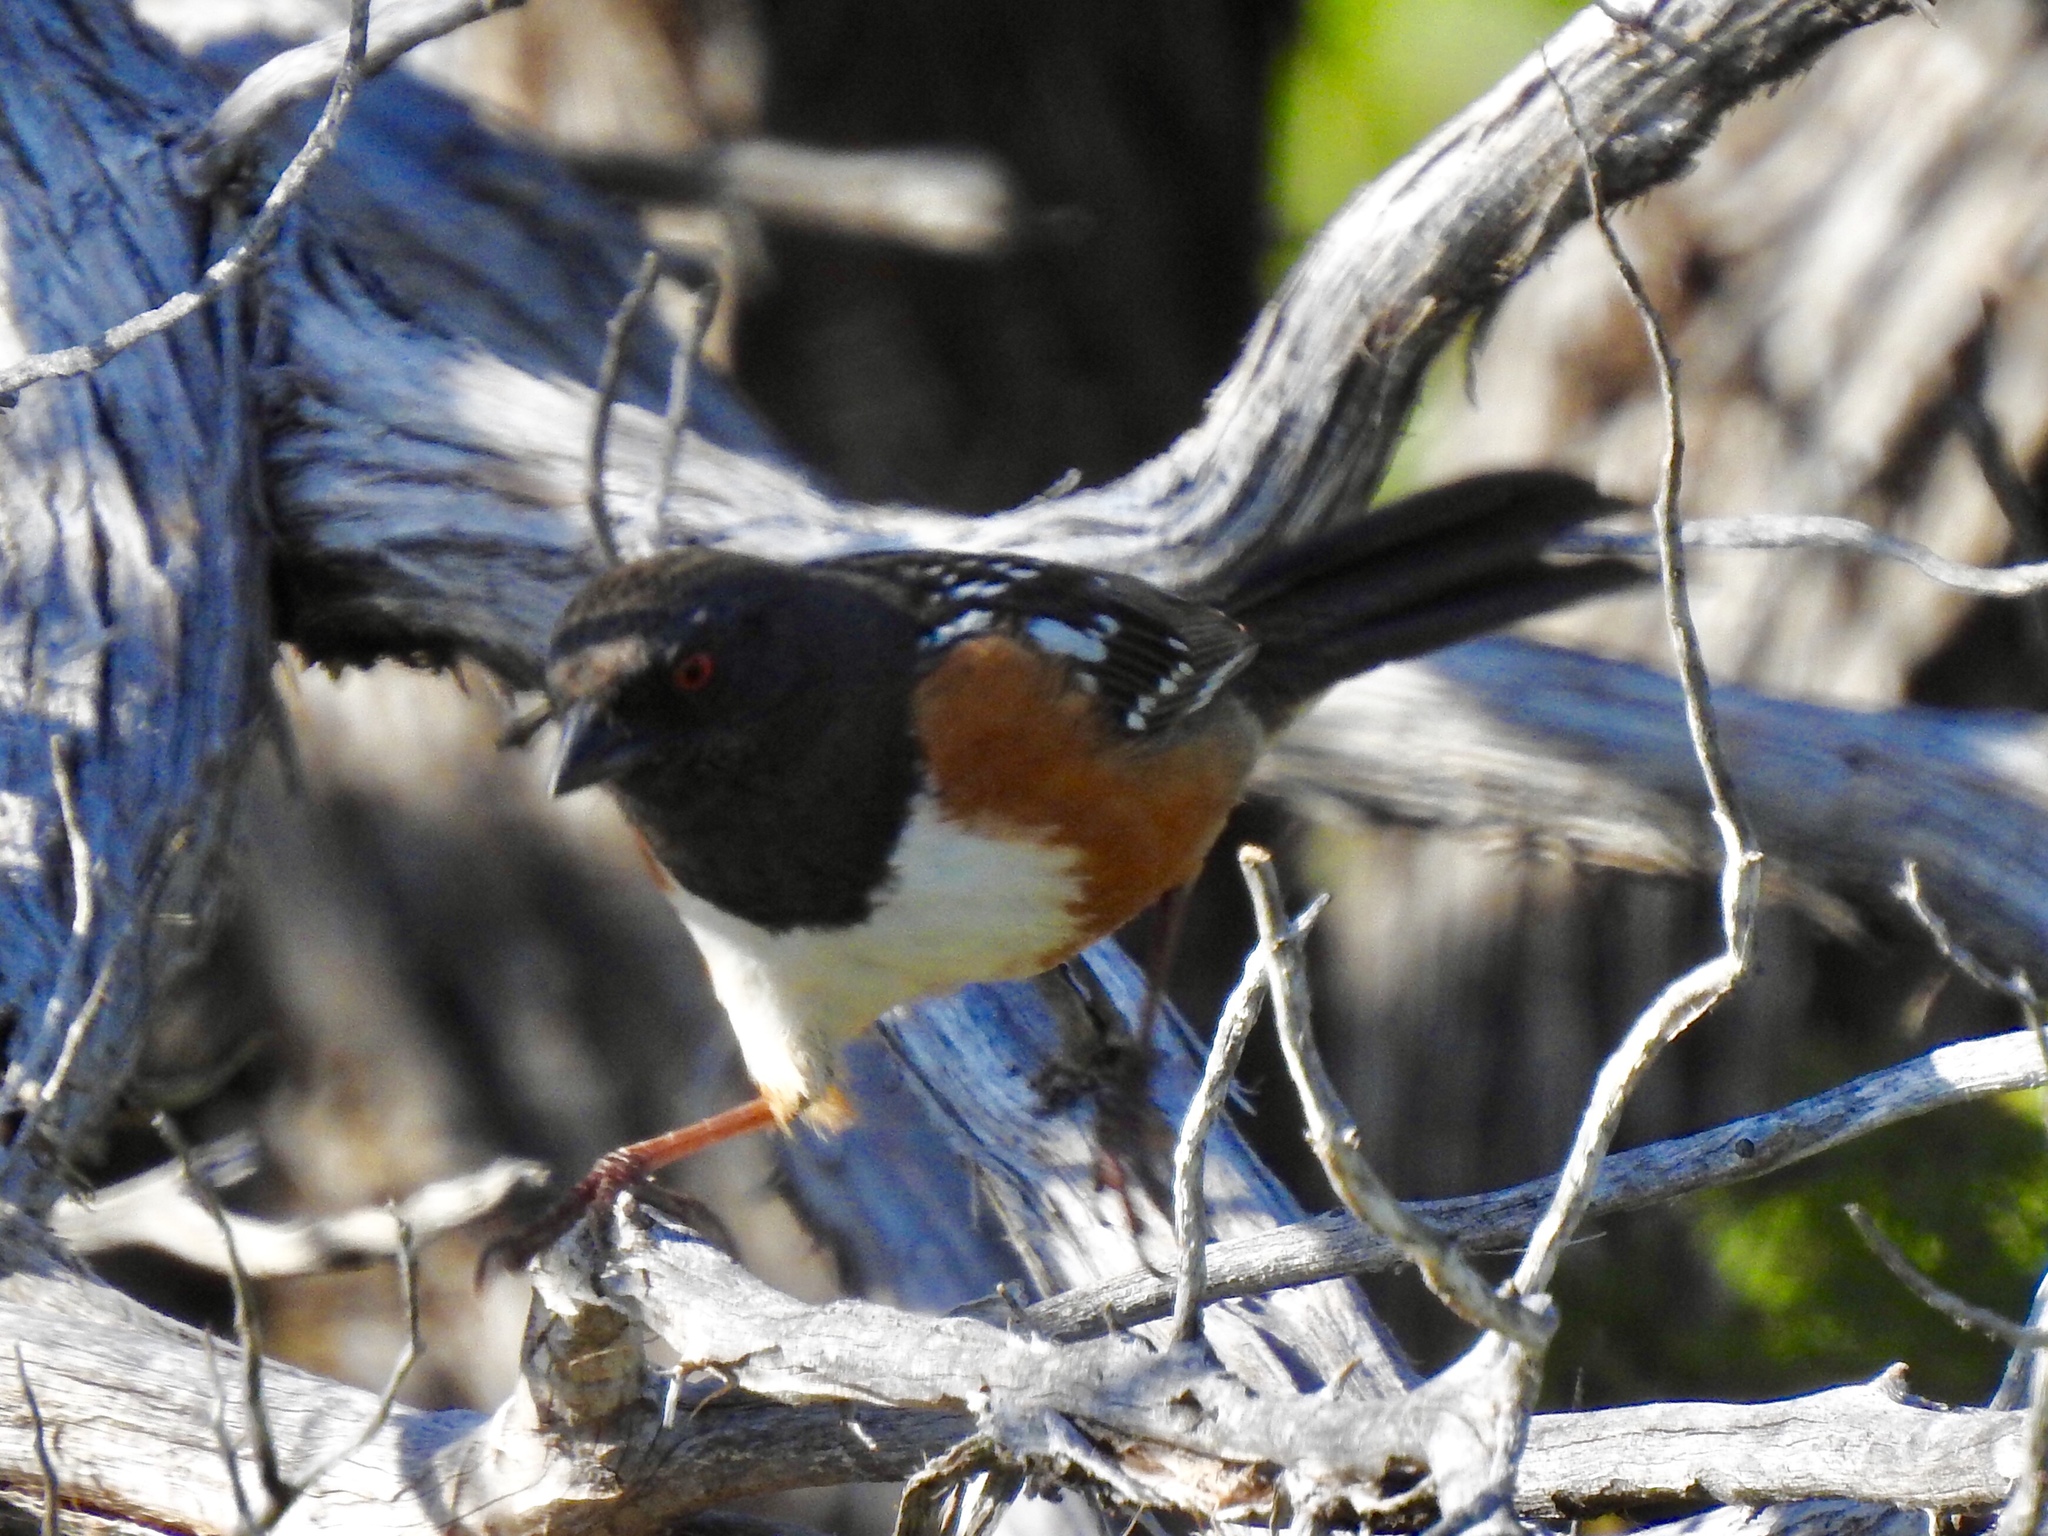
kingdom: Animalia
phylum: Chordata
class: Aves
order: Passeriformes
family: Passerellidae
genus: Pipilo
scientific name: Pipilo maculatus
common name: Spotted towhee
